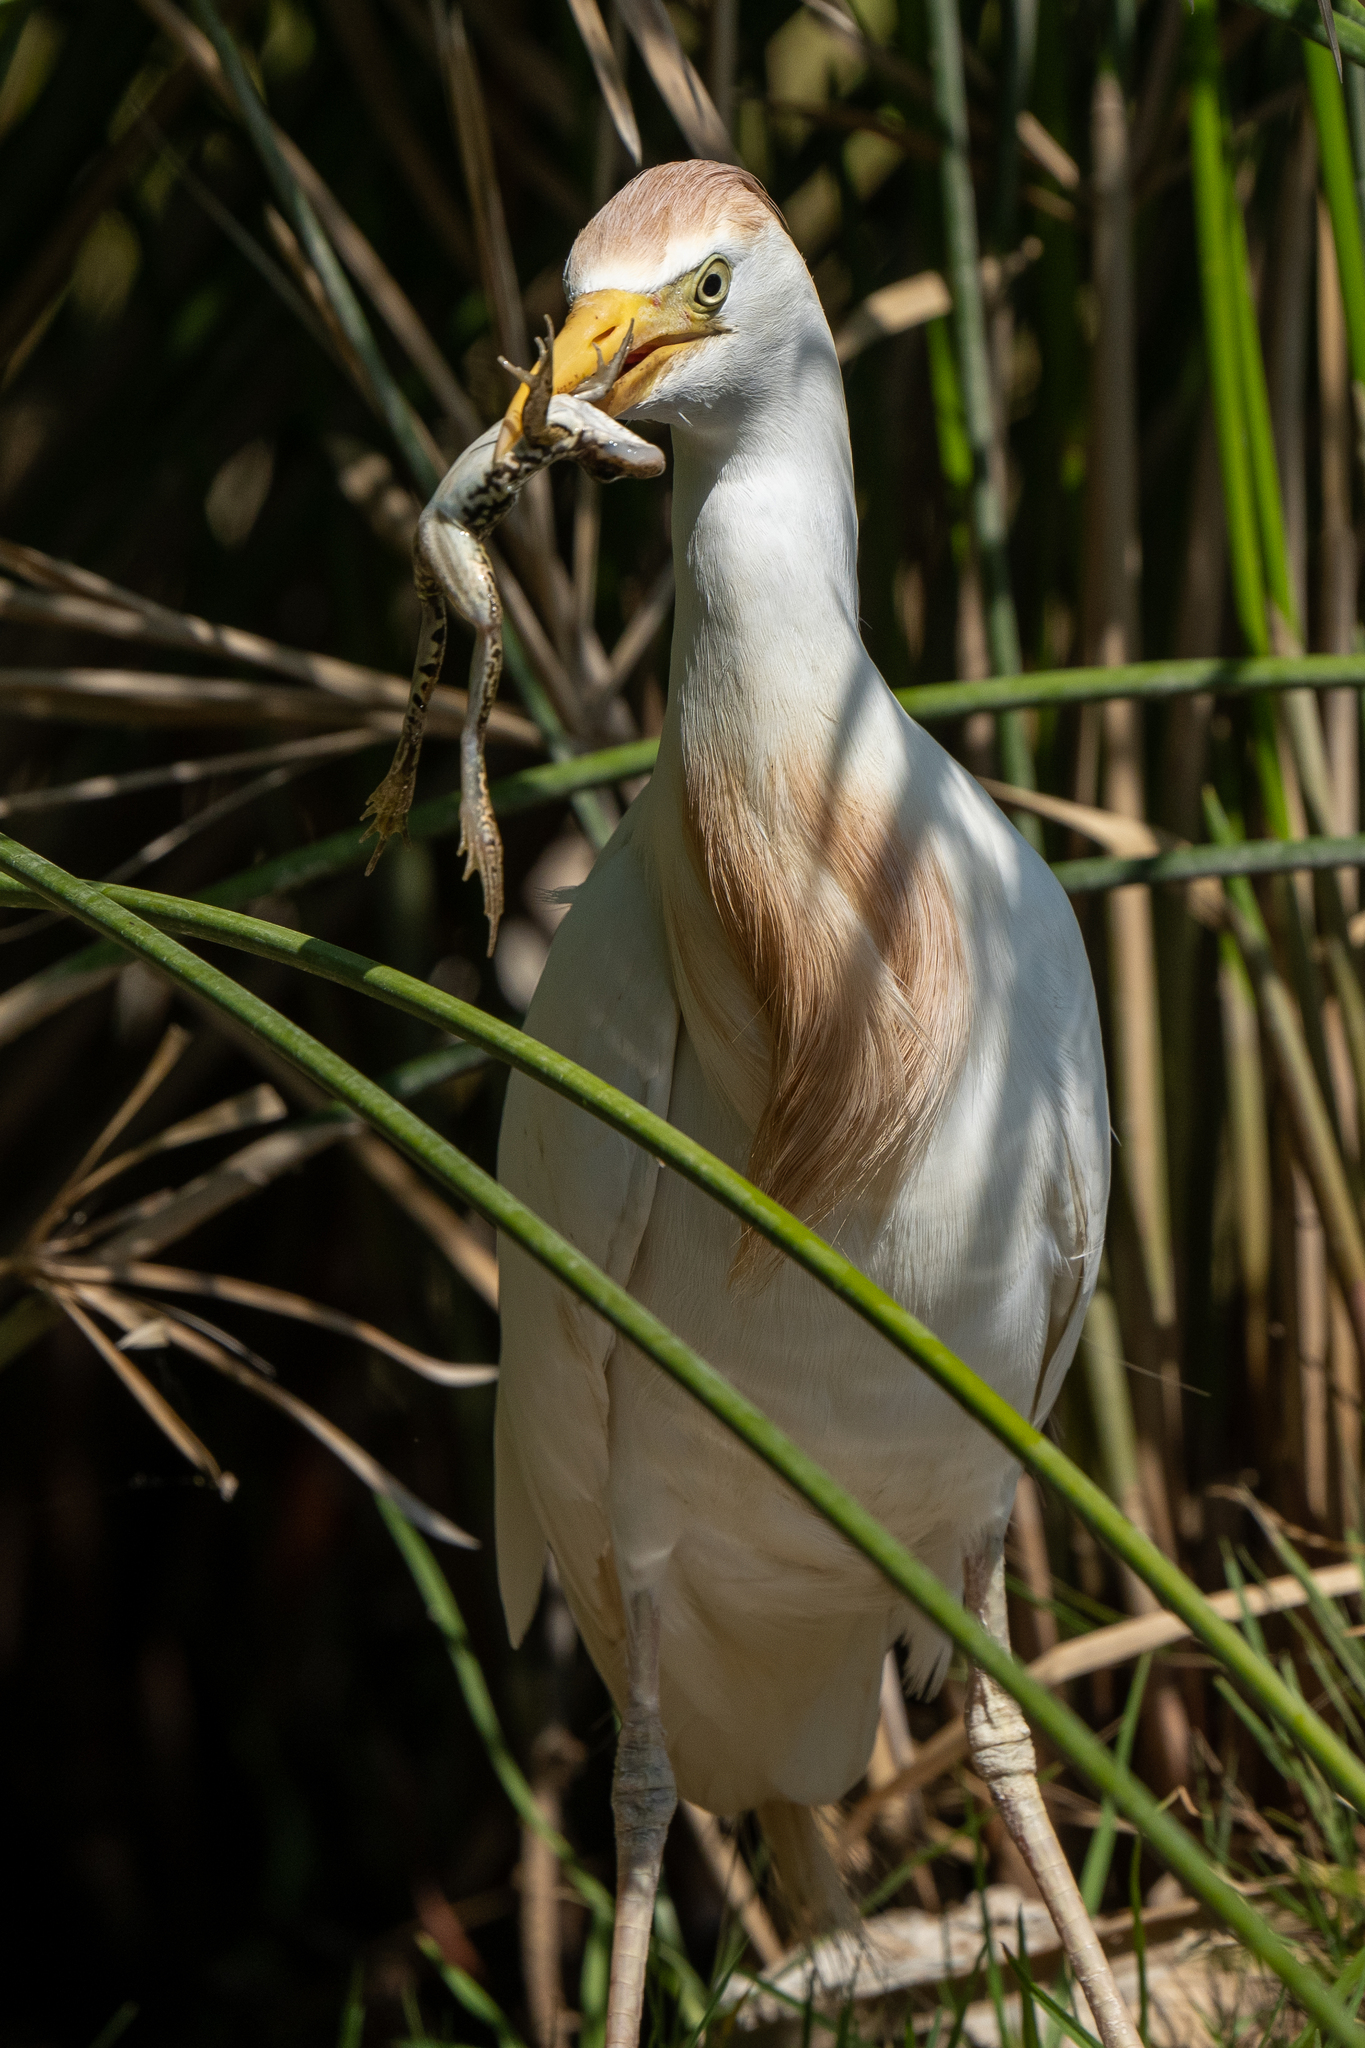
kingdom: Animalia
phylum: Chordata
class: Aves
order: Pelecaniformes
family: Ardeidae
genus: Bubulcus
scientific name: Bubulcus ibis
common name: Cattle egret
